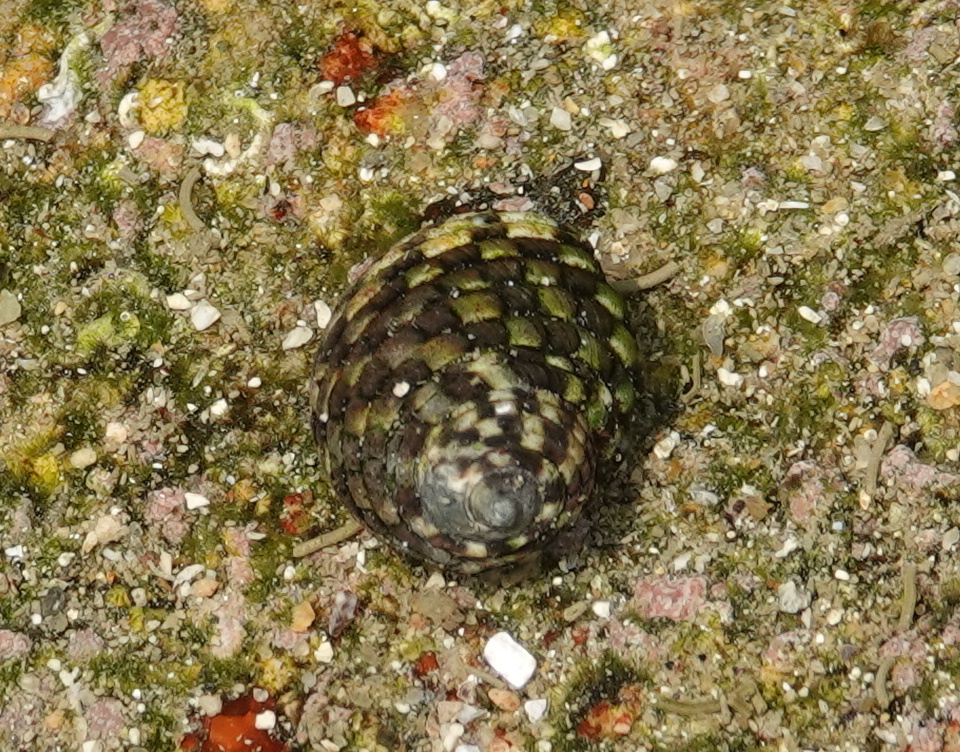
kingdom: Animalia
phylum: Mollusca
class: Gastropoda
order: Trochida
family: Trochidae
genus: Monodonta
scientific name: Monodonta labio
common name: Labio
